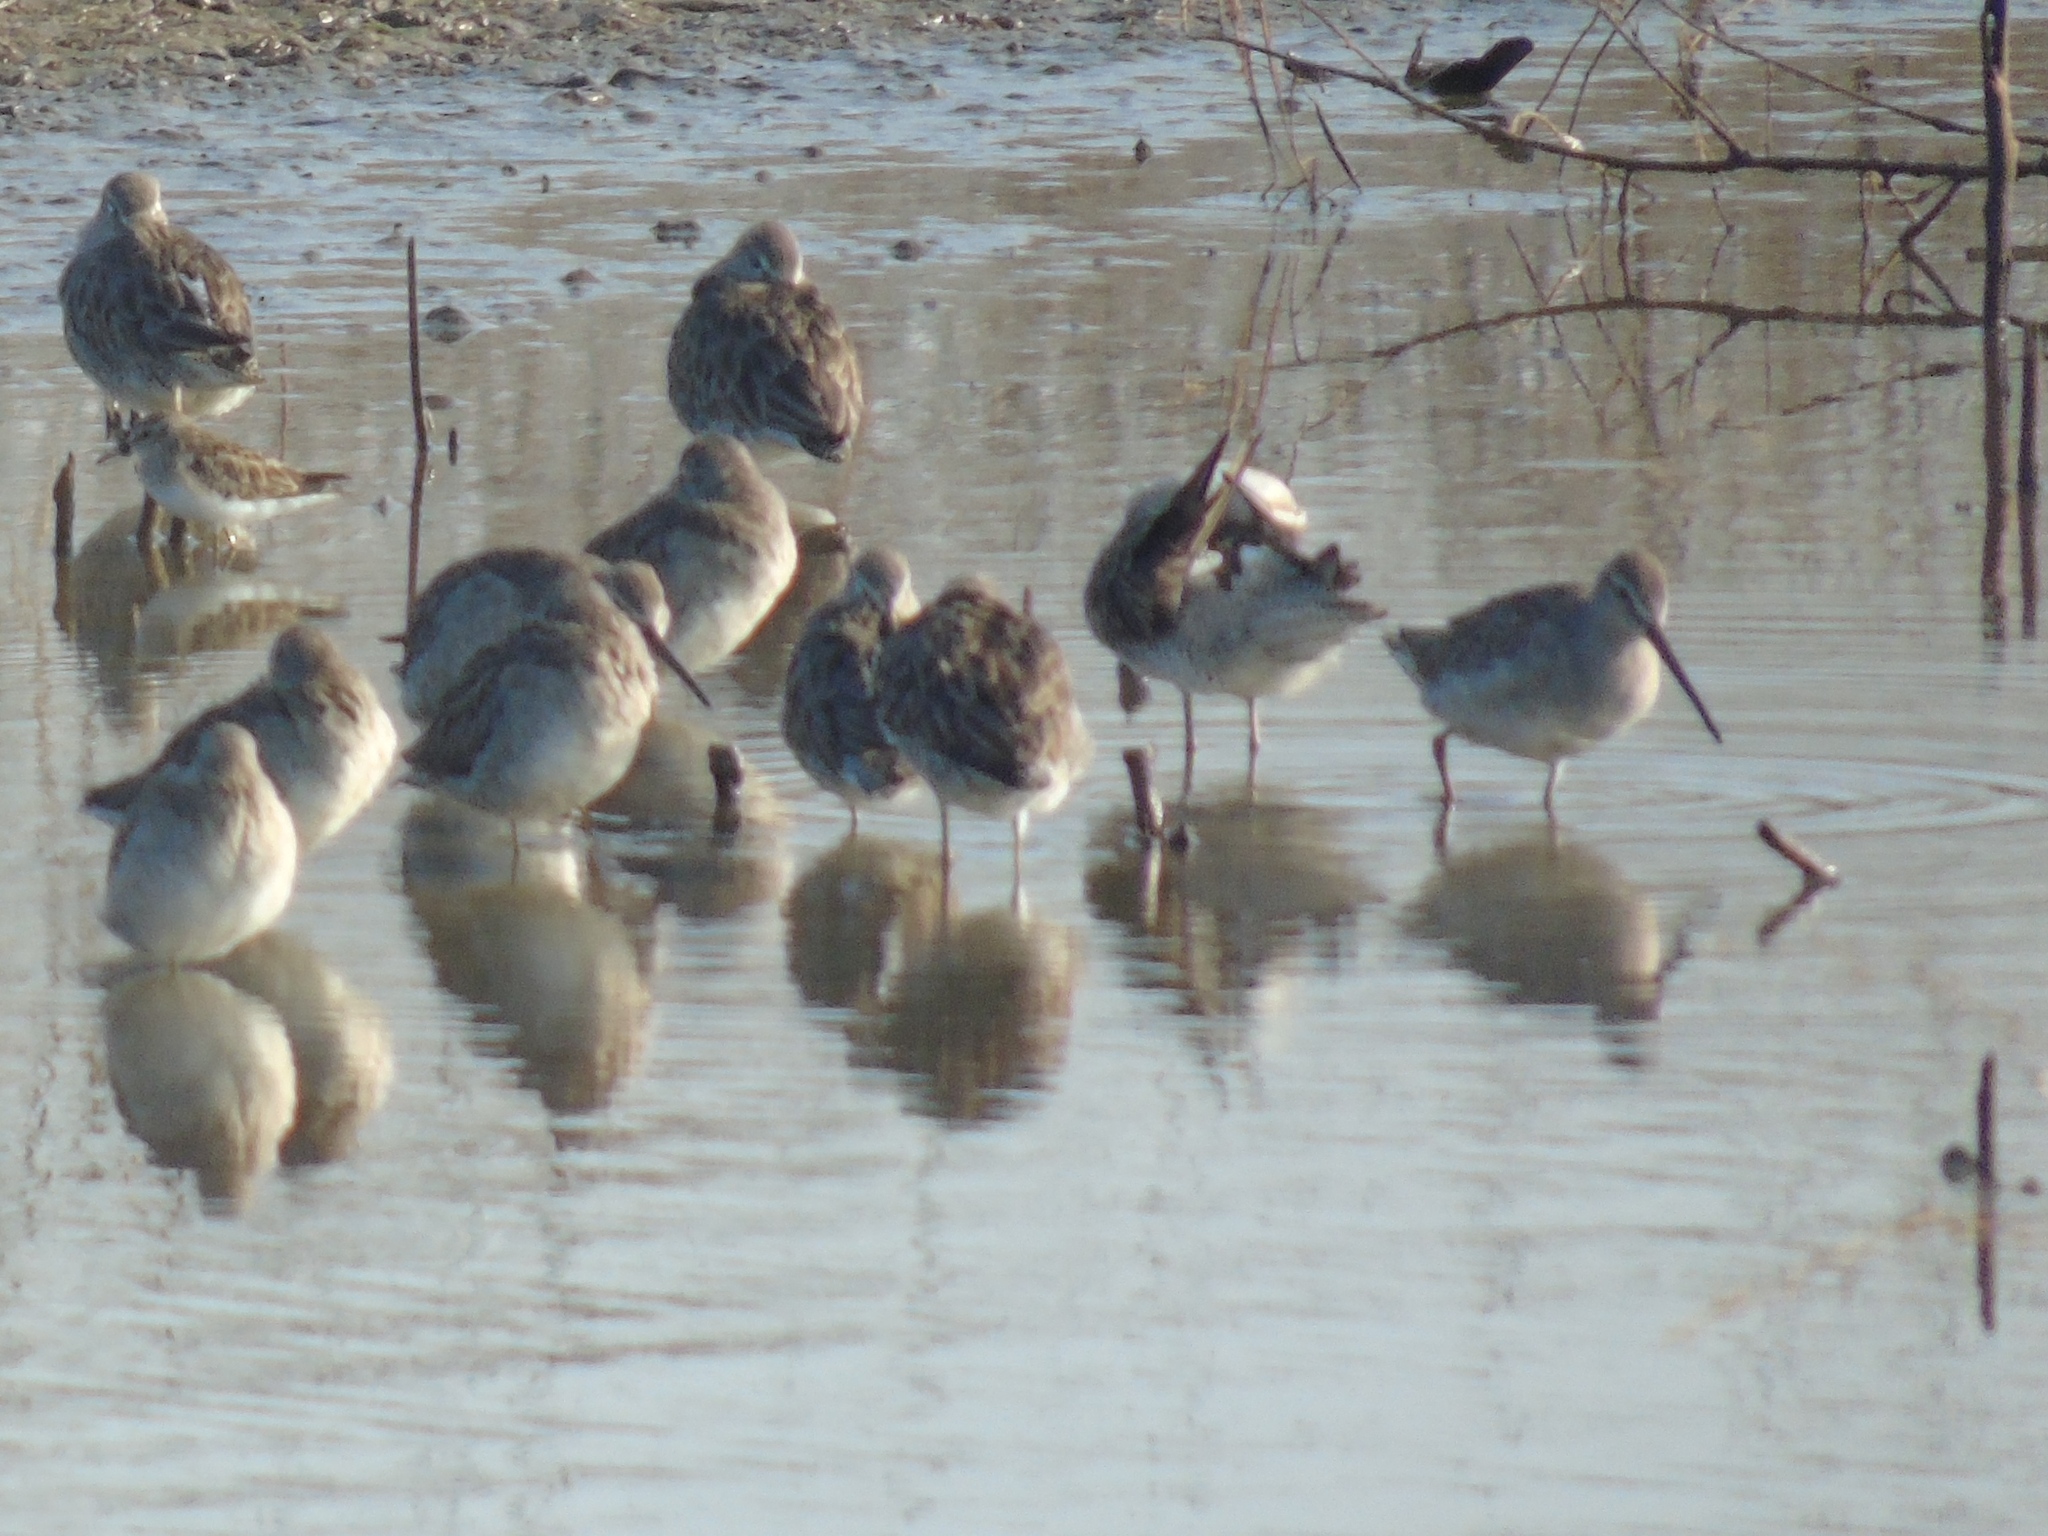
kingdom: Animalia
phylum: Chordata
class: Aves
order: Charadriiformes
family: Scolopacidae
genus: Limnodromus
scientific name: Limnodromus
